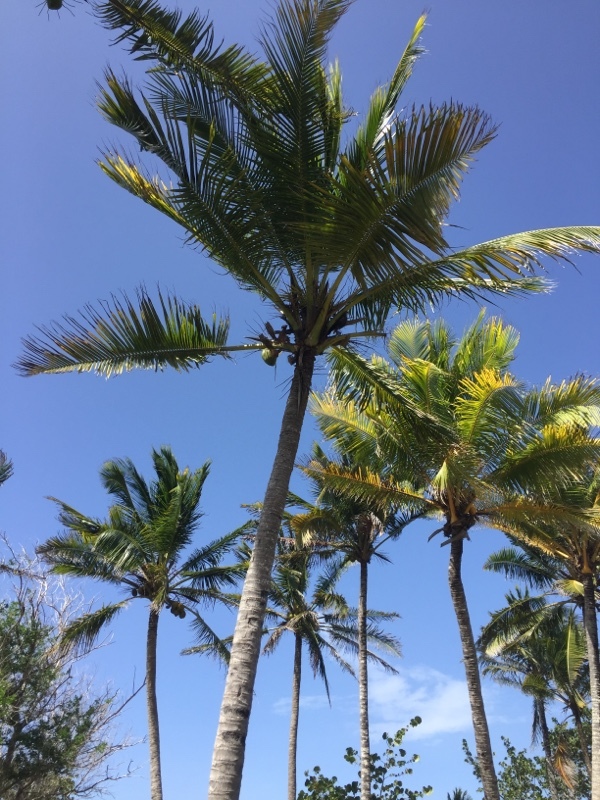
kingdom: Plantae
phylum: Tracheophyta
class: Liliopsida
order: Arecales
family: Arecaceae
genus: Cocos
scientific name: Cocos nucifera
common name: Coconut palm
